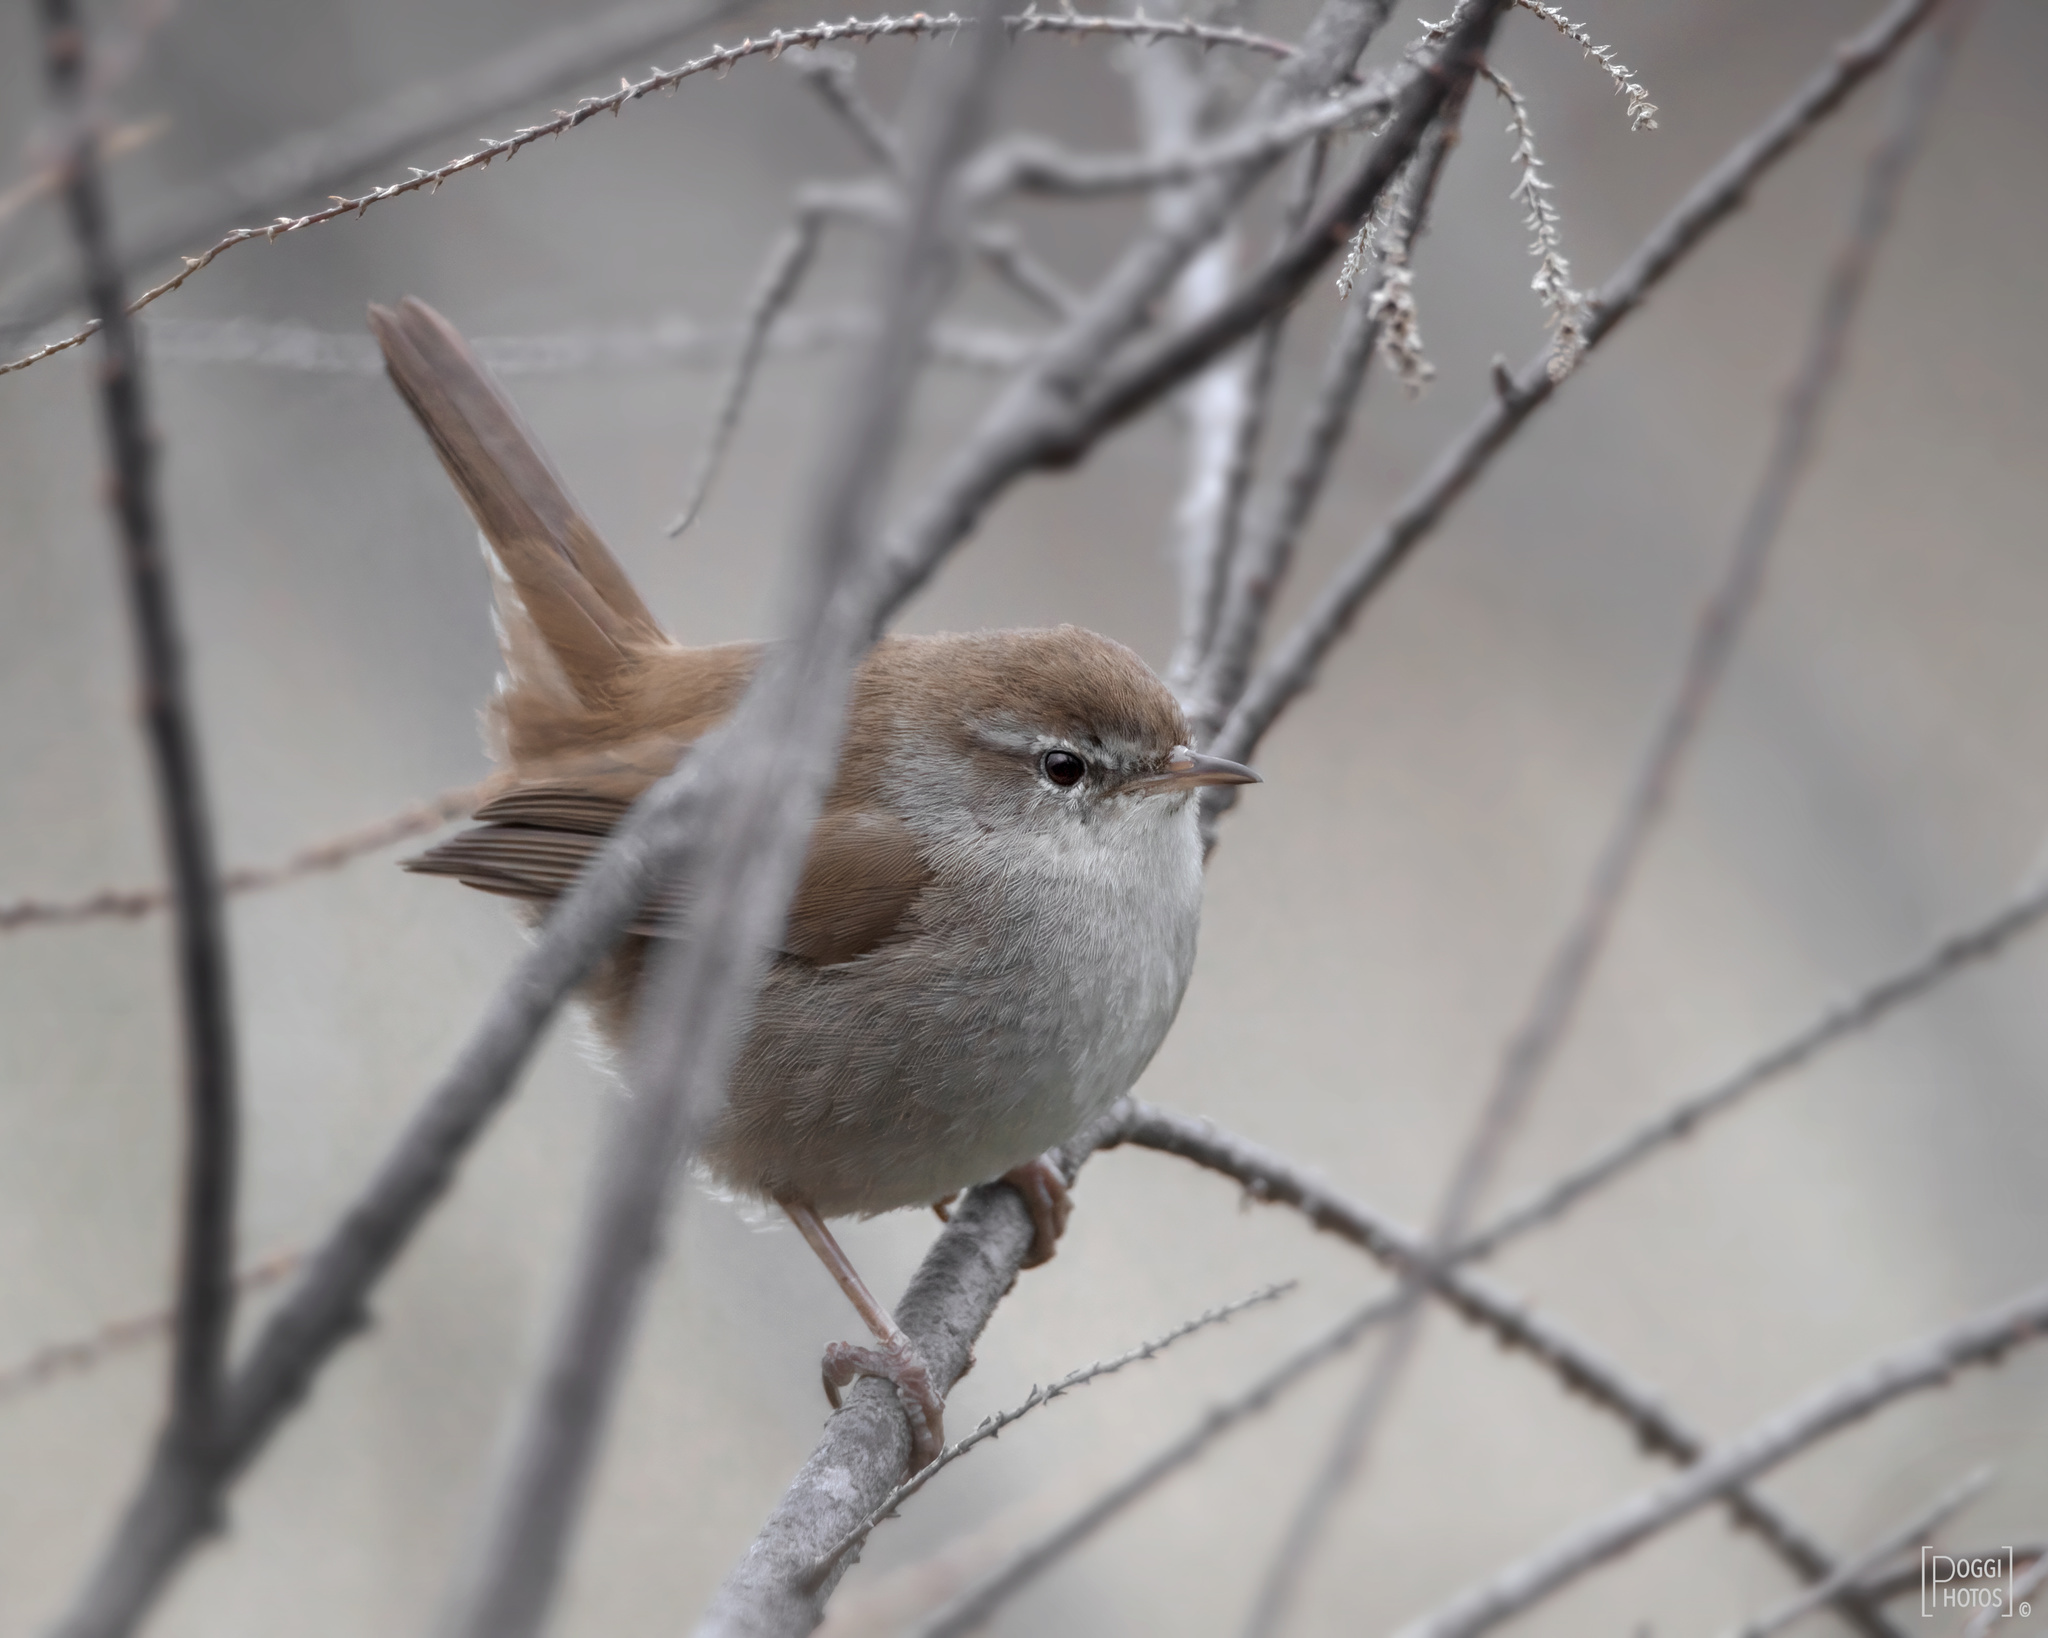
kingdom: Animalia
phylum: Chordata
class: Aves
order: Passeriformes
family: Cettiidae
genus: Cettia
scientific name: Cettia cetti
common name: Cetti's warbler
